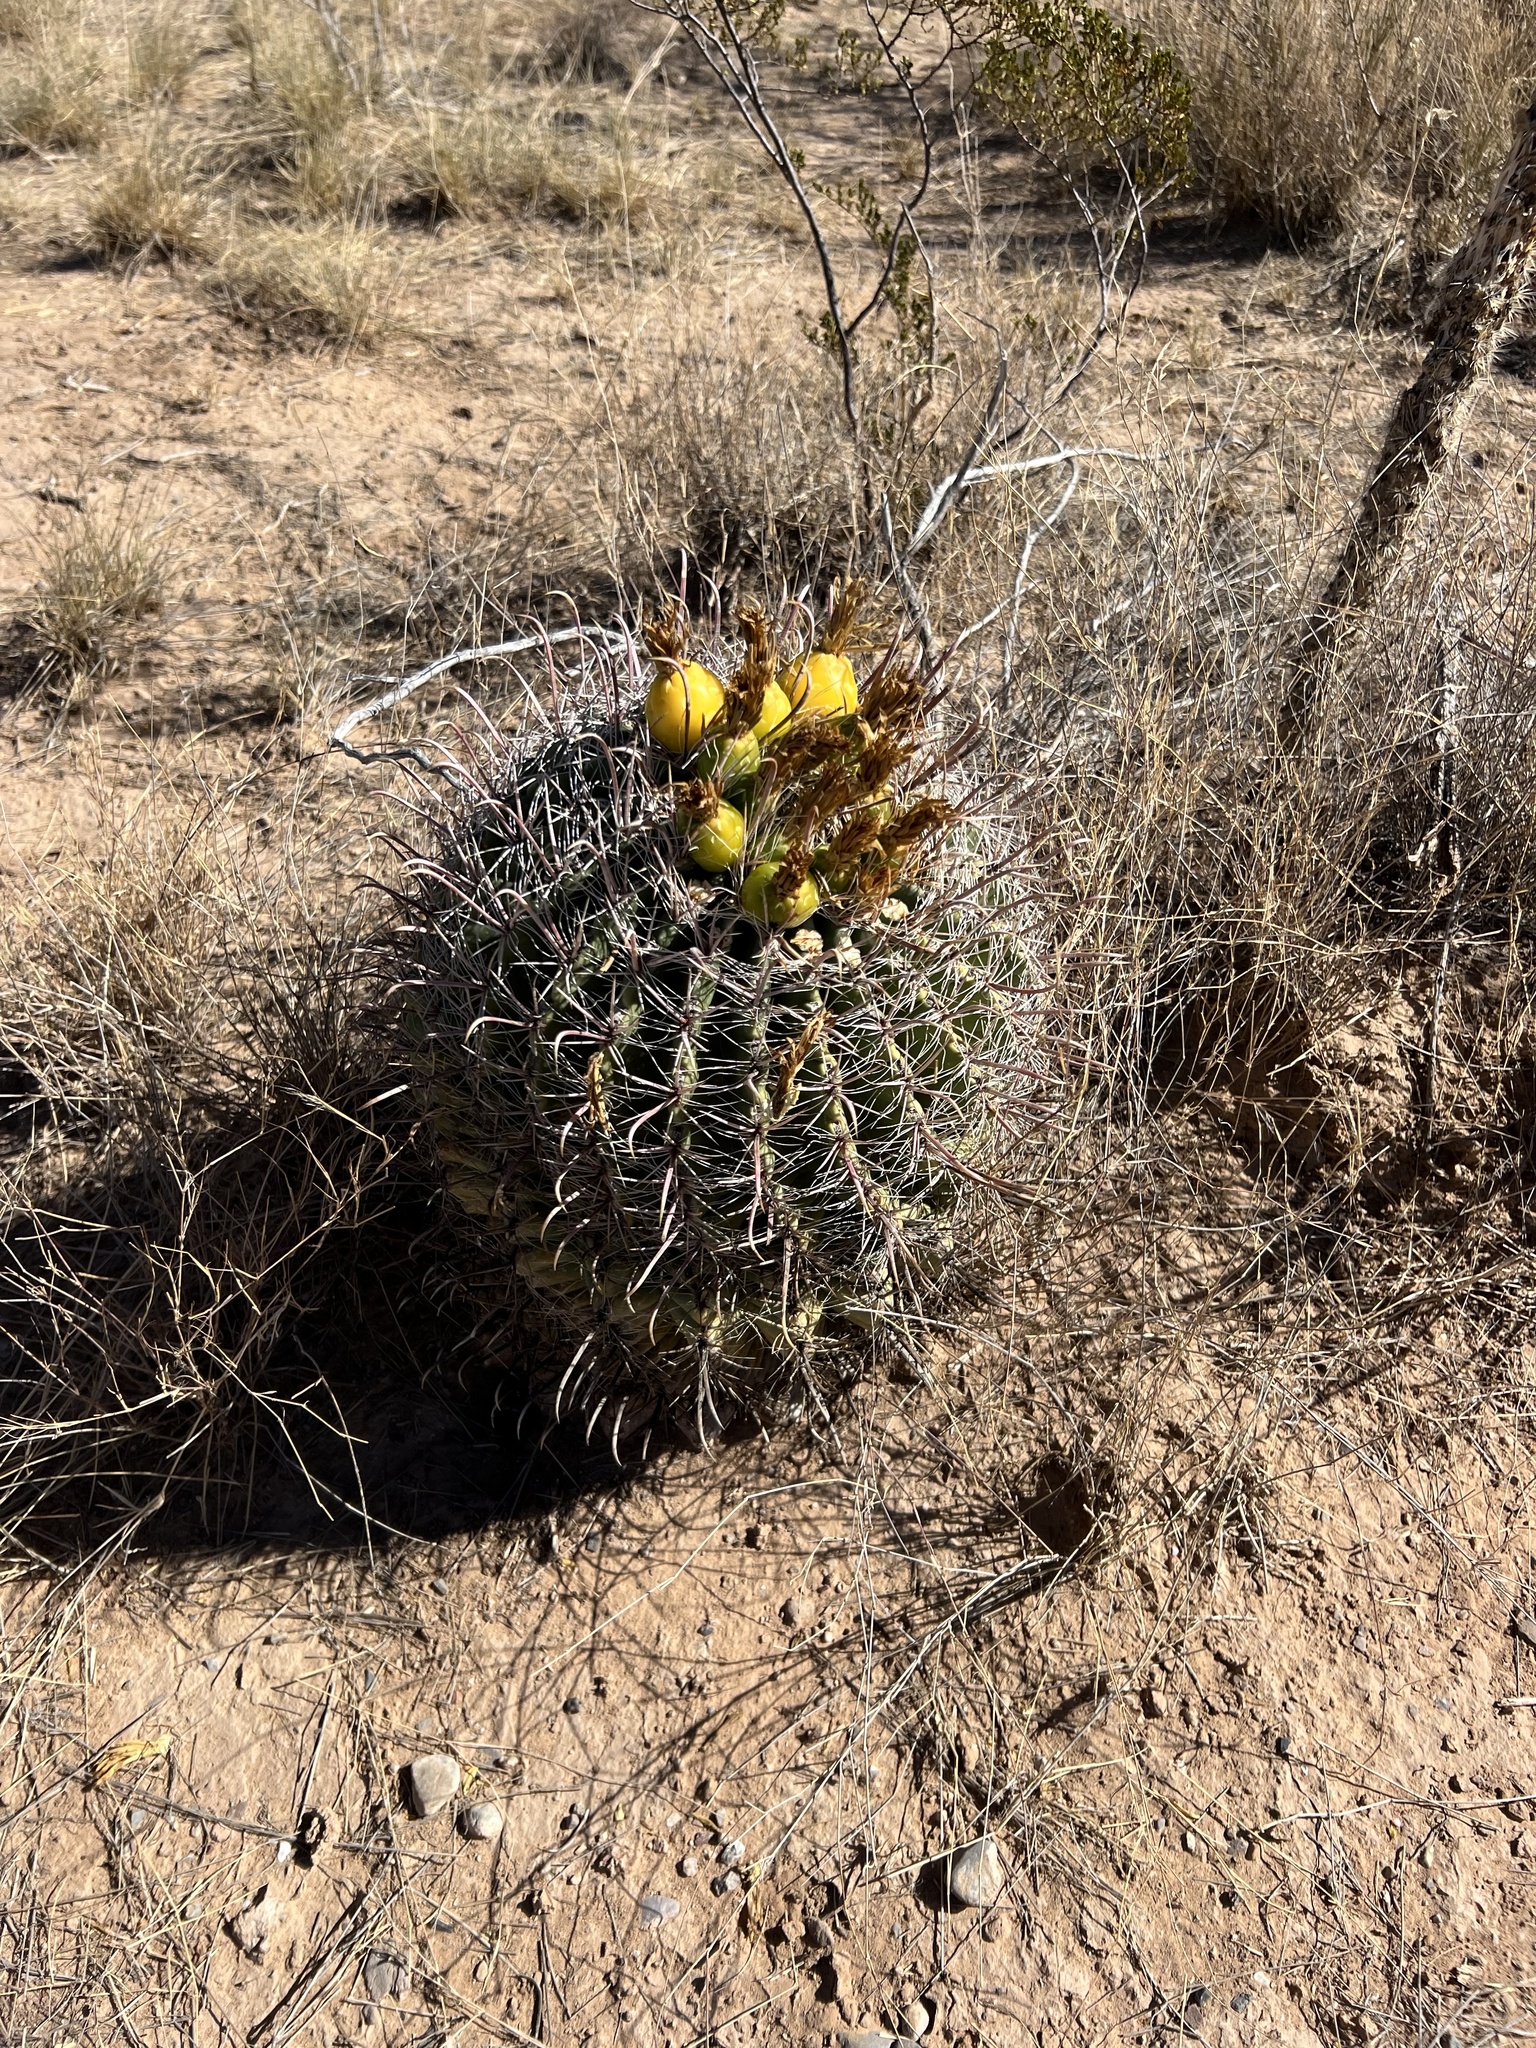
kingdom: Plantae
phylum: Tracheophyta
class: Magnoliopsida
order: Caryophyllales
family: Cactaceae
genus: Ferocactus
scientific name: Ferocactus wislizeni
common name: Candy barrel cactus
